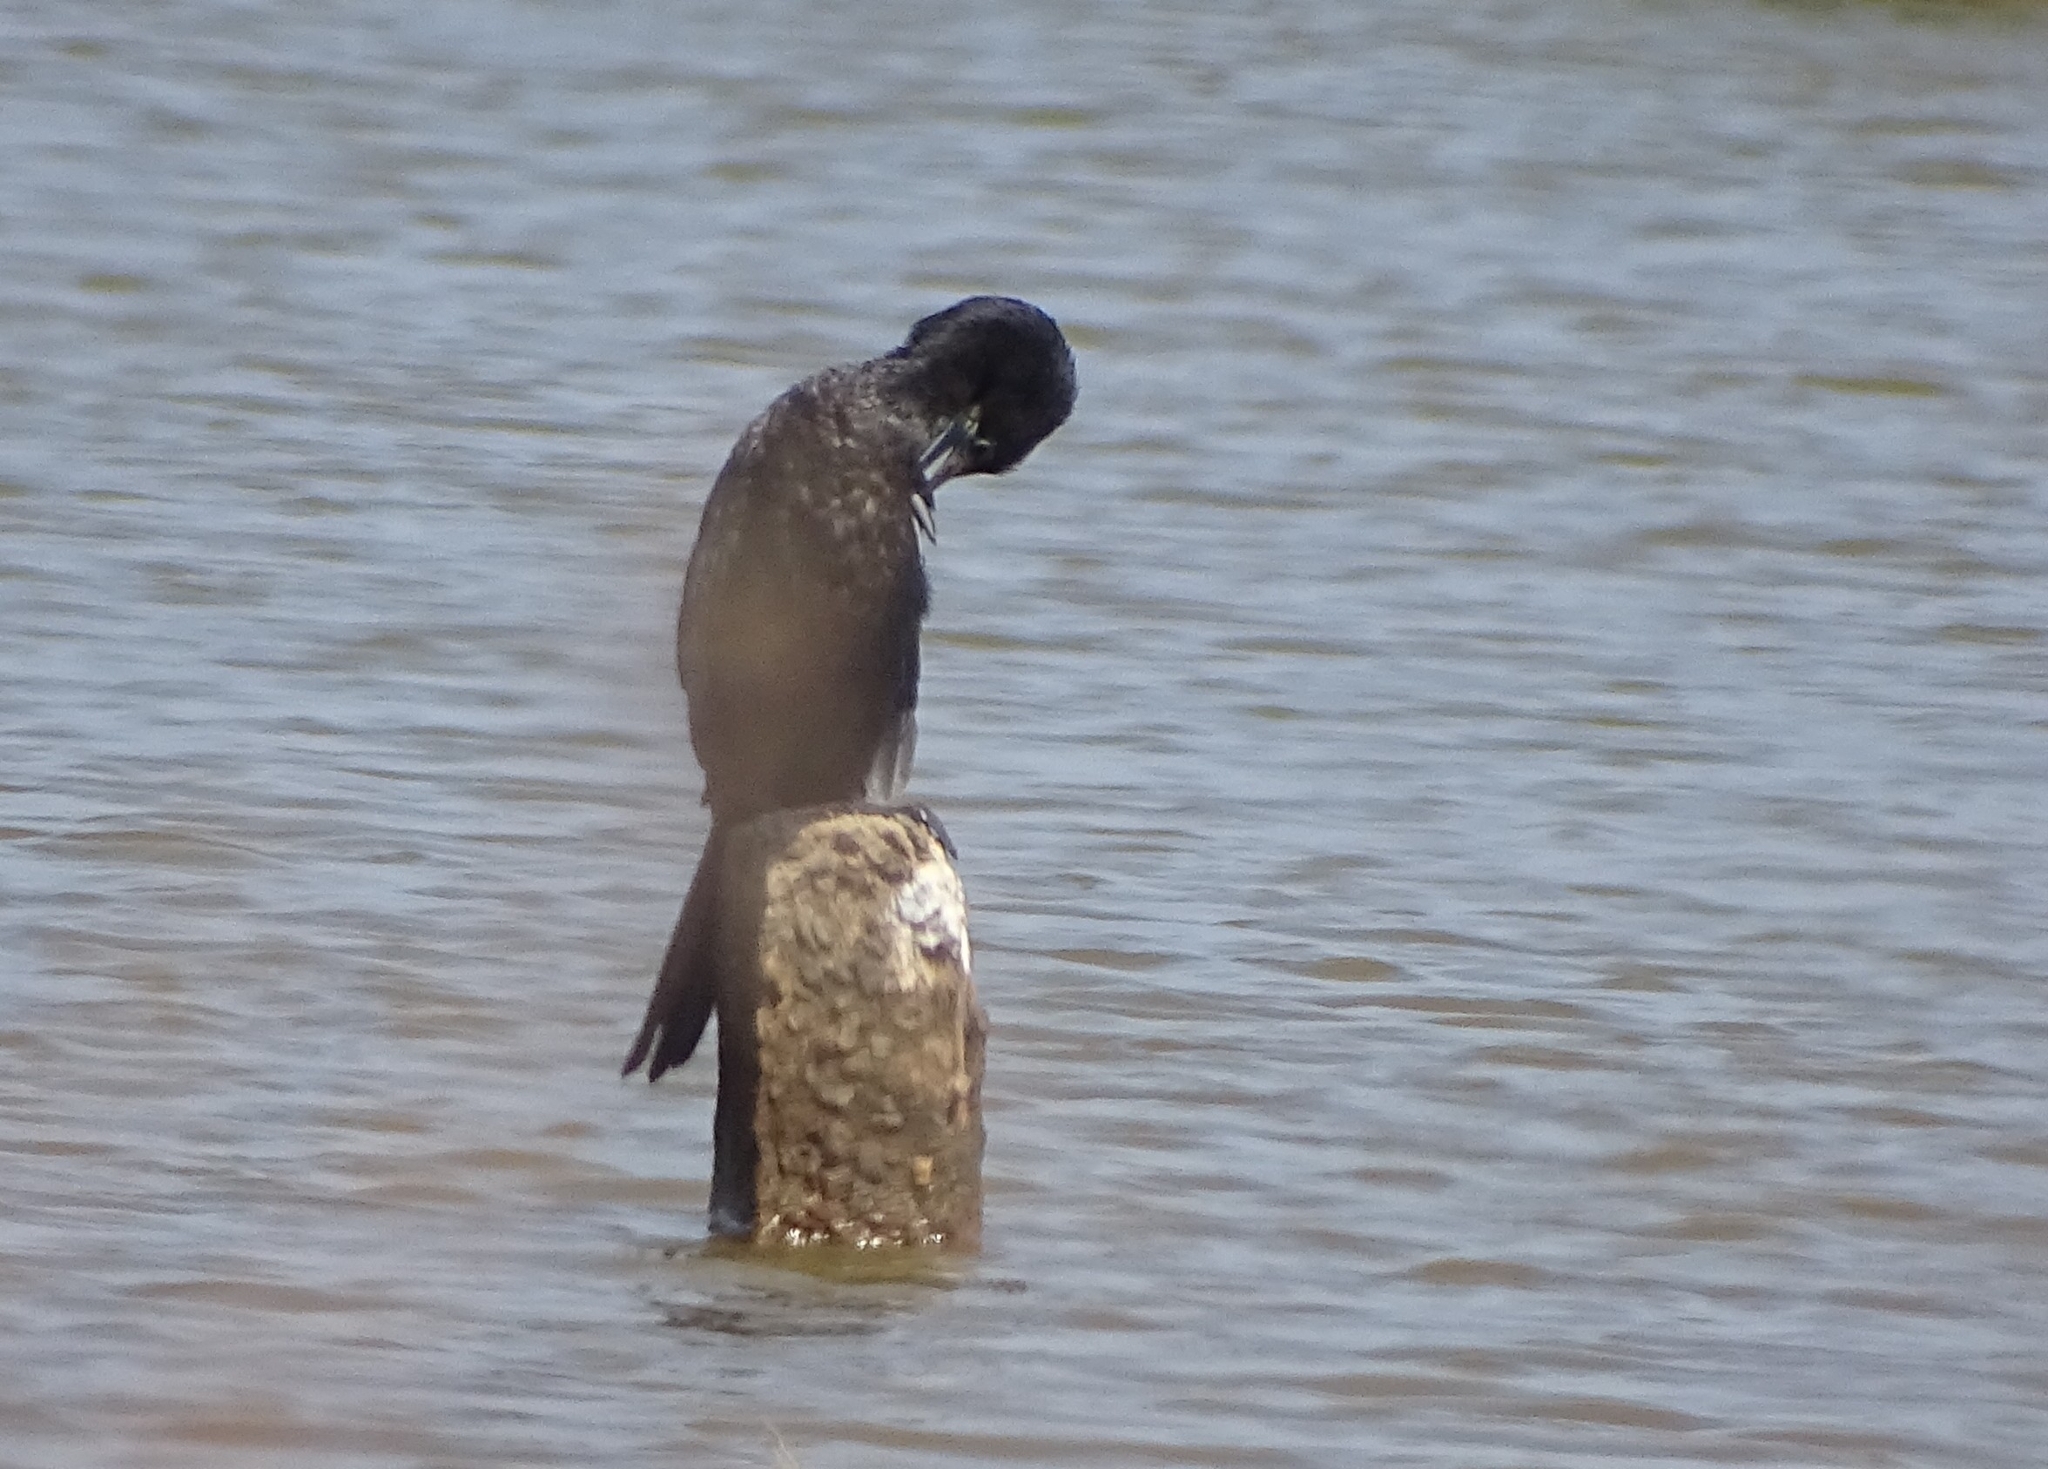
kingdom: Animalia
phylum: Chordata
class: Aves
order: Suliformes
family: Phalacrocoracidae
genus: Microcarbo
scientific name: Microcarbo niger
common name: Little cormorant
